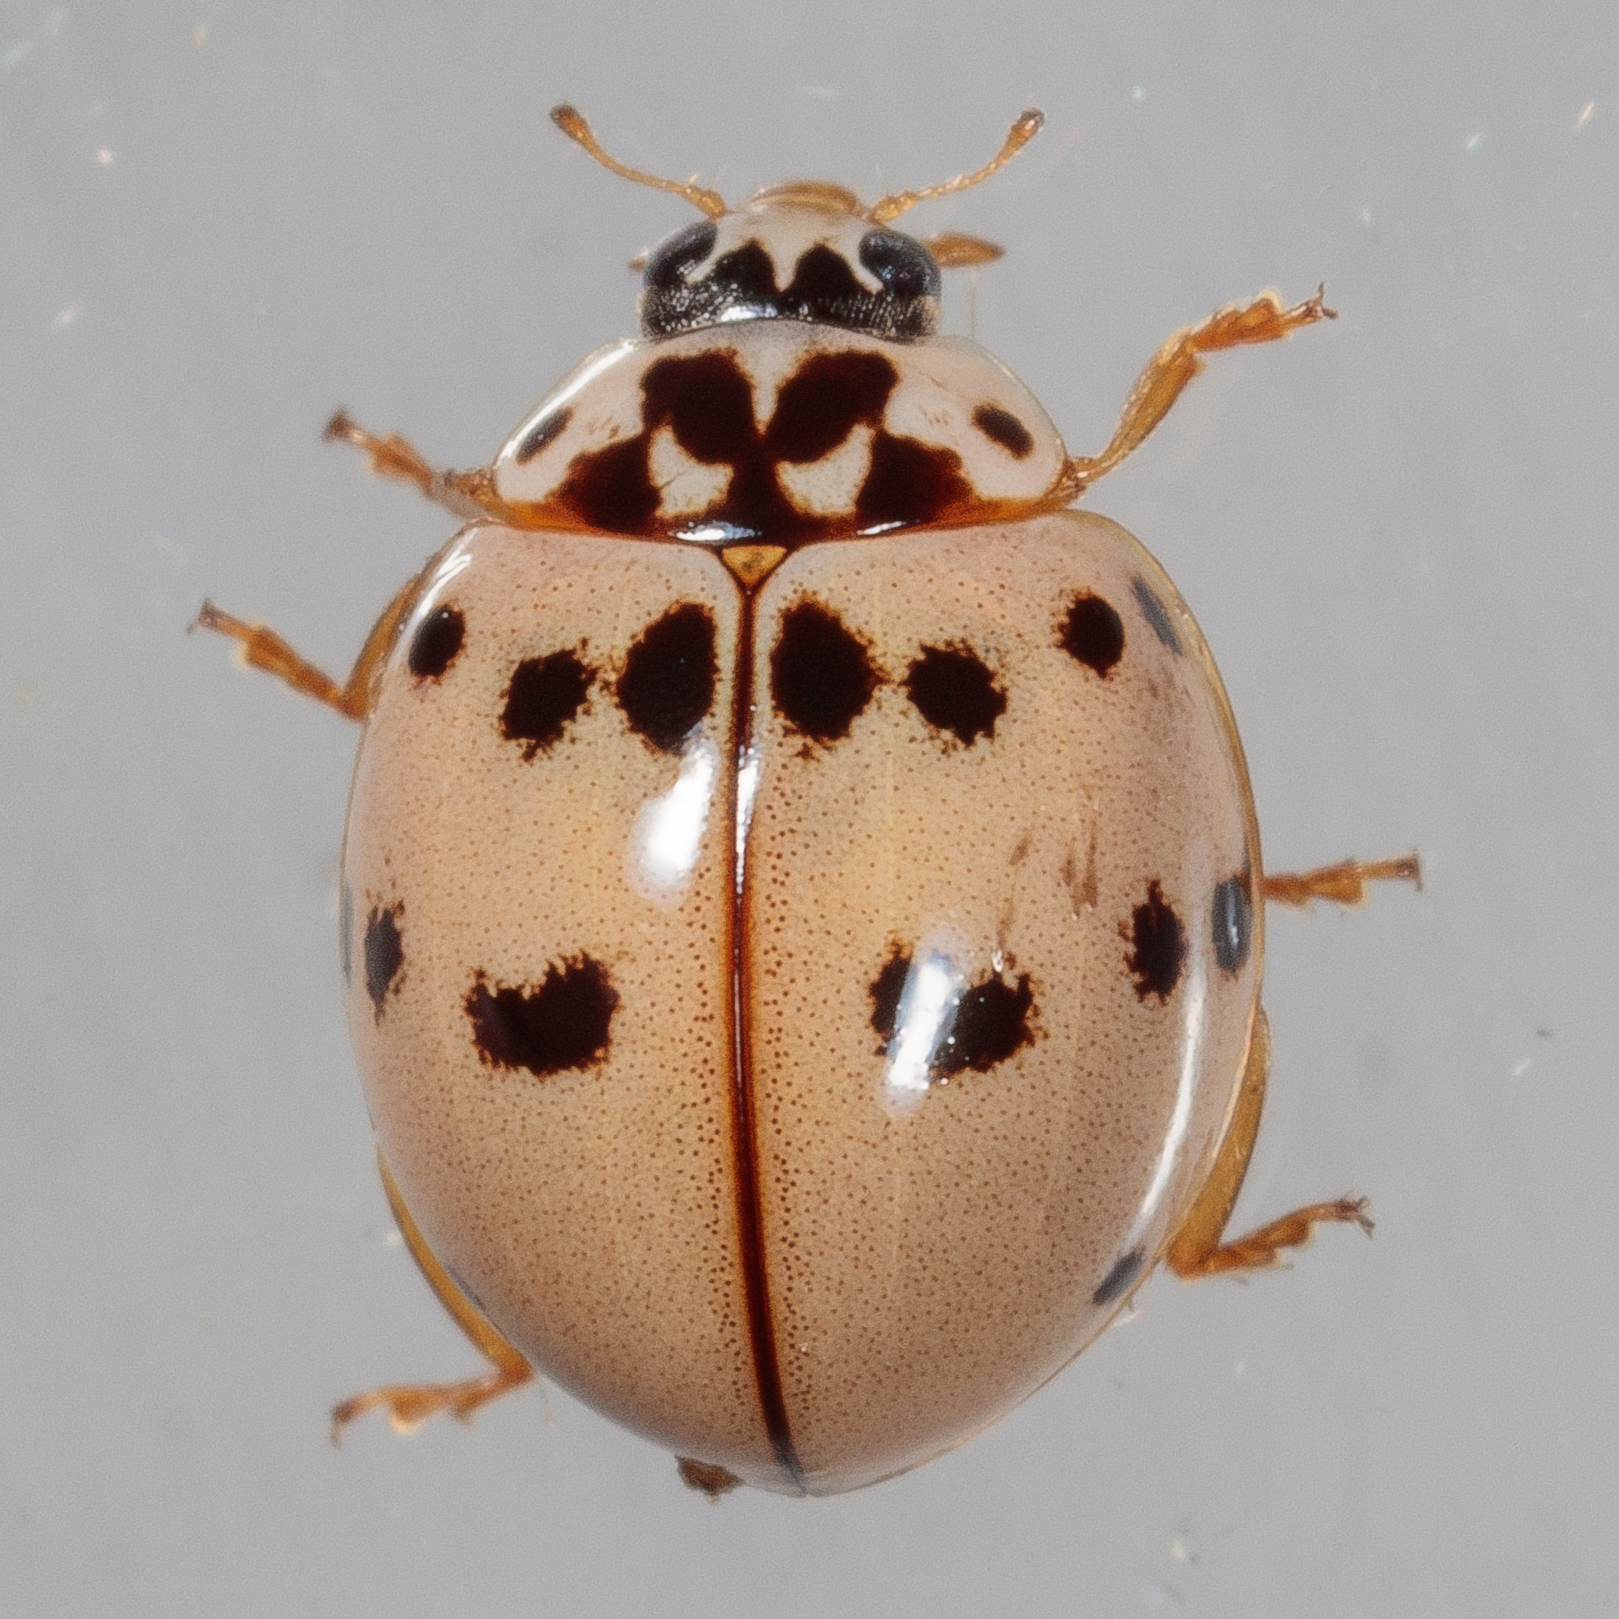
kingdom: Animalia
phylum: Arthropoda
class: Insecta
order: Coleoptera
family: Coccinellidae
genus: Olla
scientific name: Olla v-nigrum
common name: Ashy gray lady beetle
